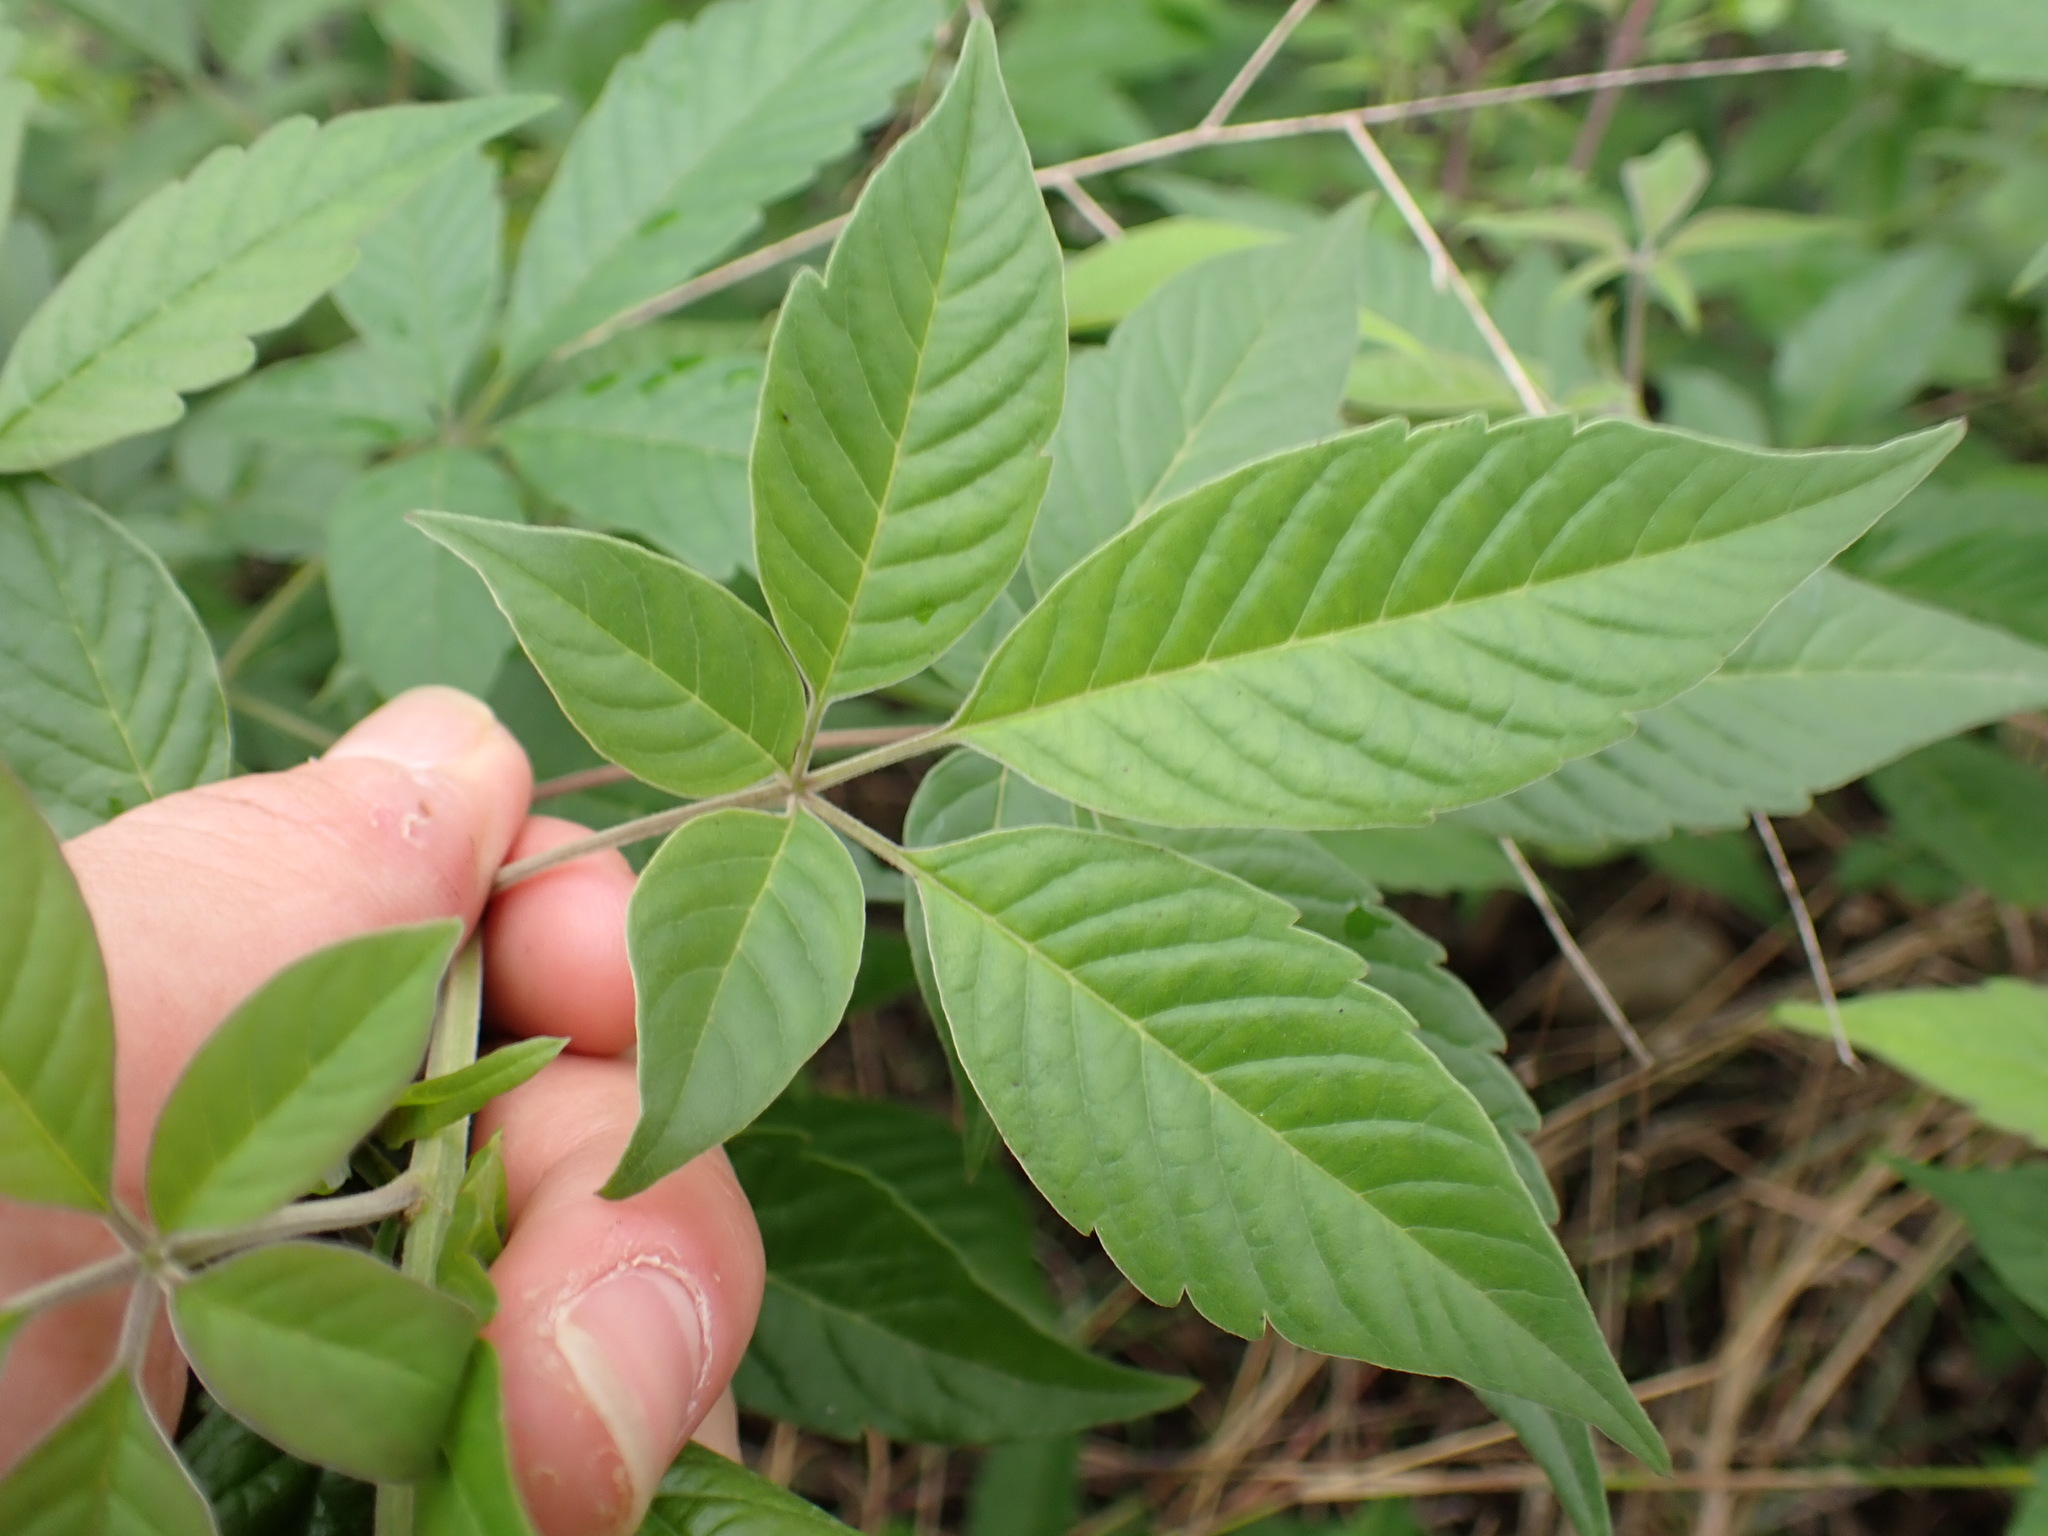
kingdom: Plantae
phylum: Tracheophyta
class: Magnoliopsida
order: Lamiales
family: Lamiaceae
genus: Vitex
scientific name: Vitex negundo
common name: Chinese chastetree
